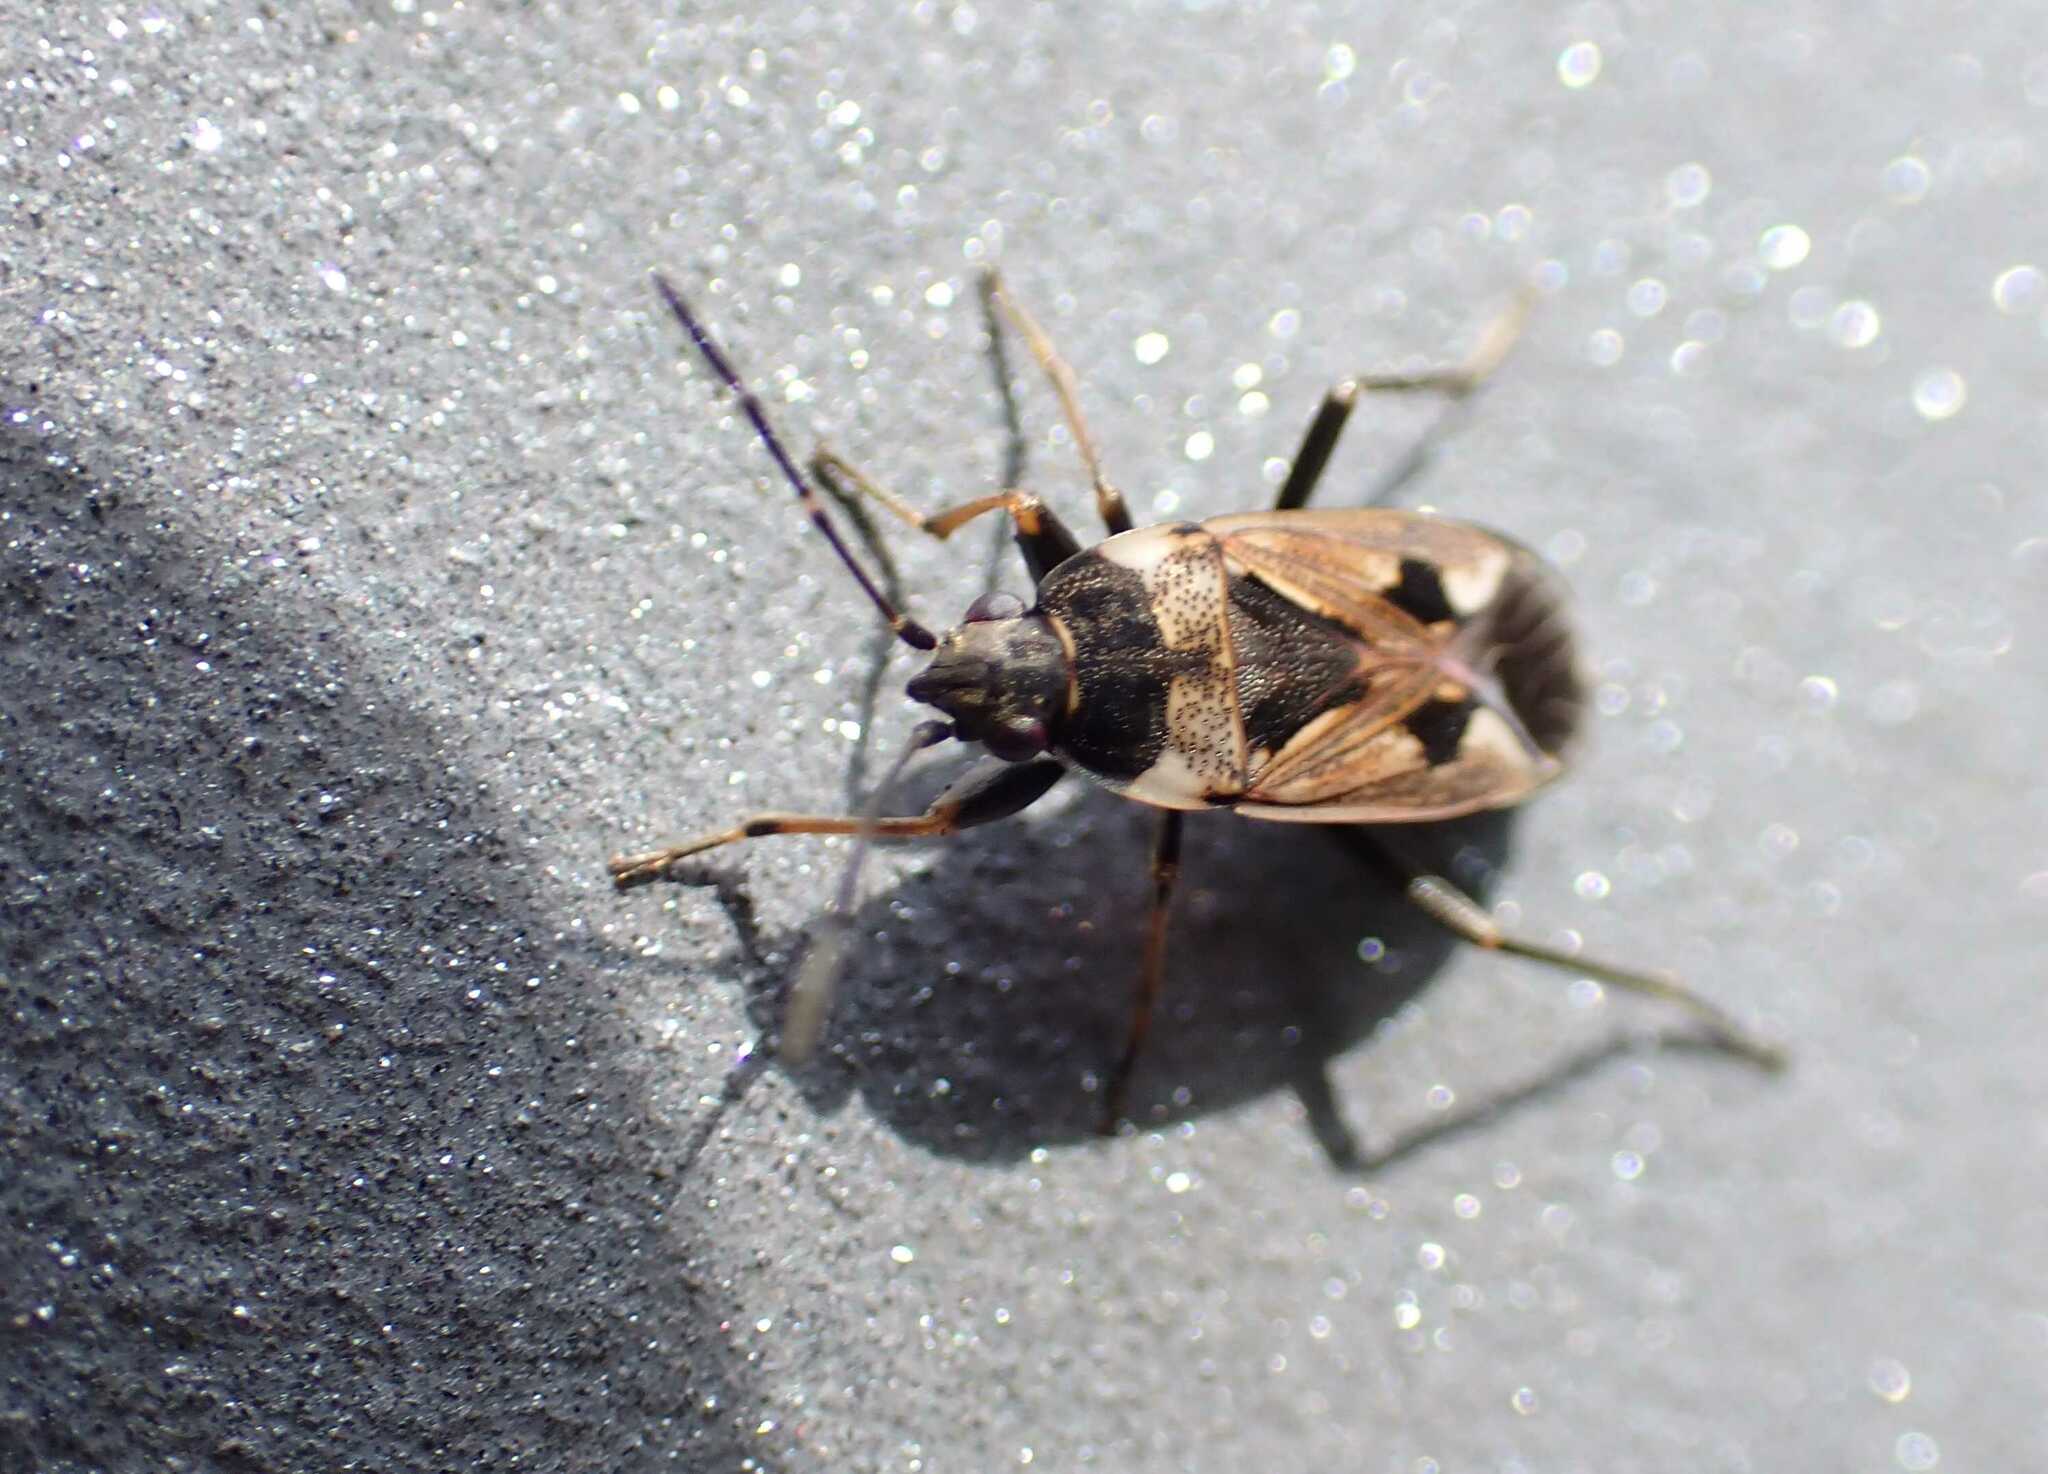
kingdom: Animalia
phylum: Arthropoda
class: Insecta
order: Hemiptera
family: Rhyparochromidae
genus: Rhyparochromus
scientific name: Rhyparochromus vulgaris
